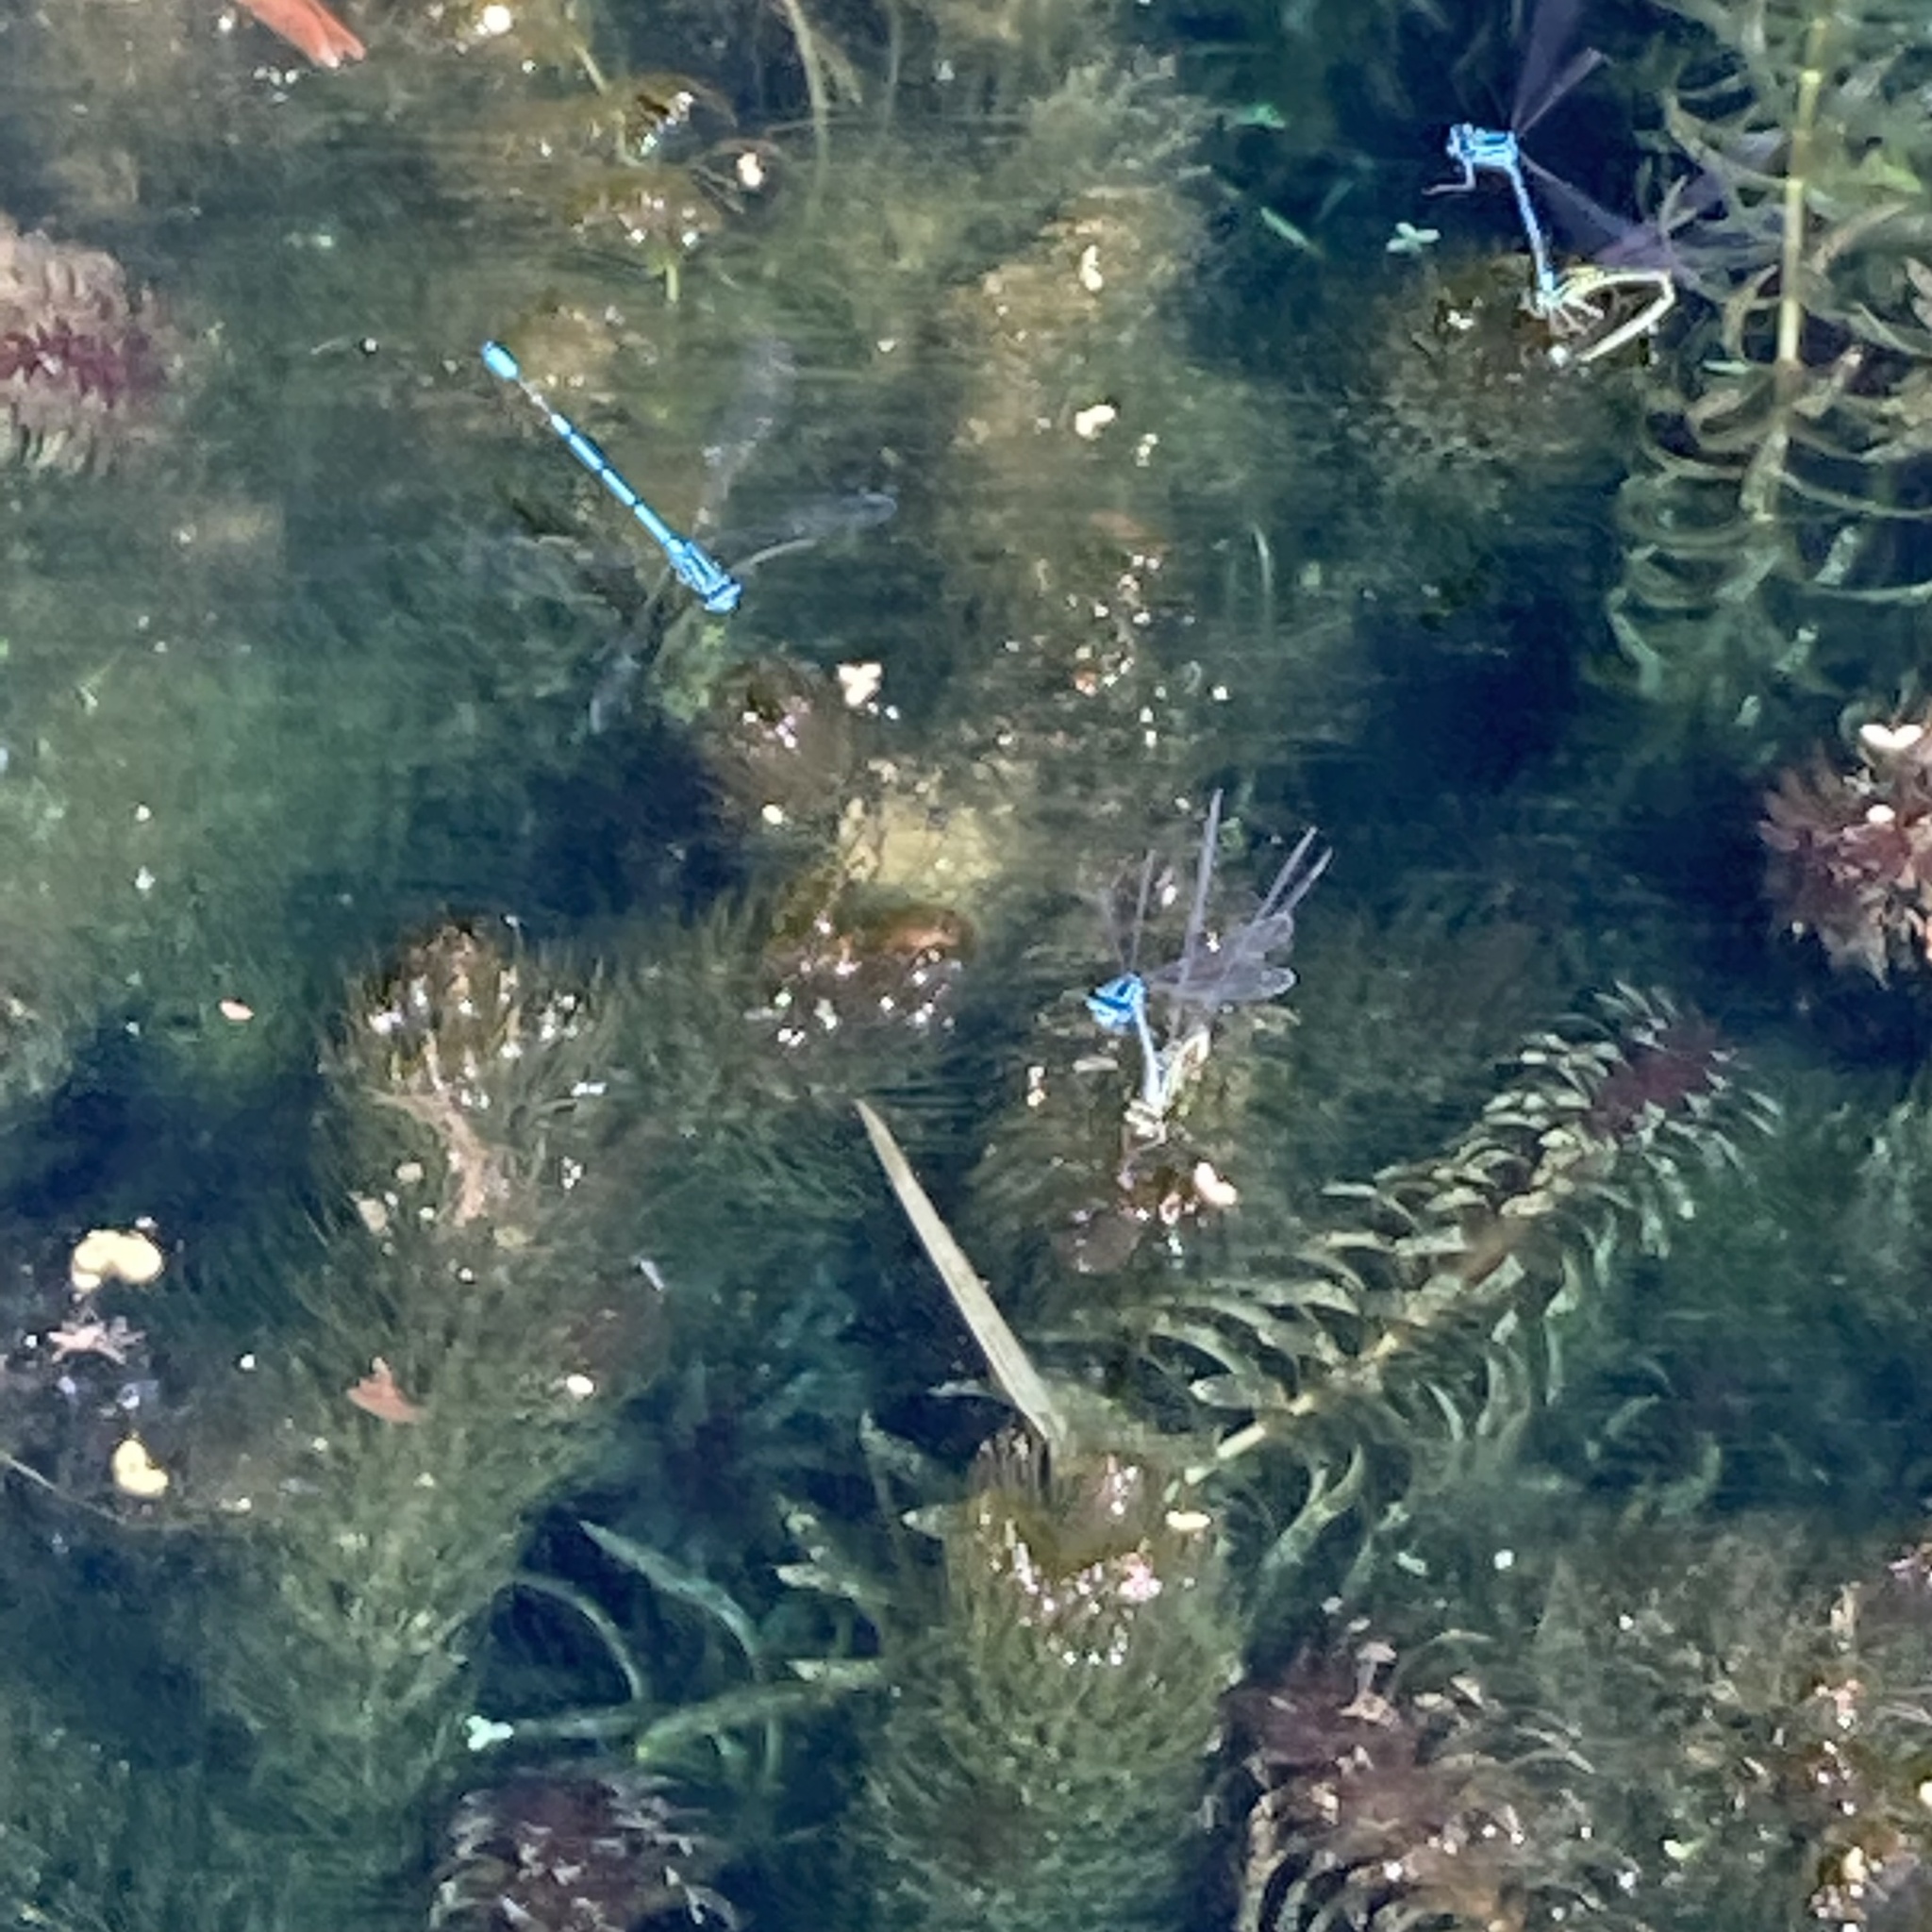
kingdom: Animalia
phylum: Arthropoda
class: Insecta
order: Odonata
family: Coenagrionidae
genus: Coenagrion
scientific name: Coenagrion puella
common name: Azure damselfly
